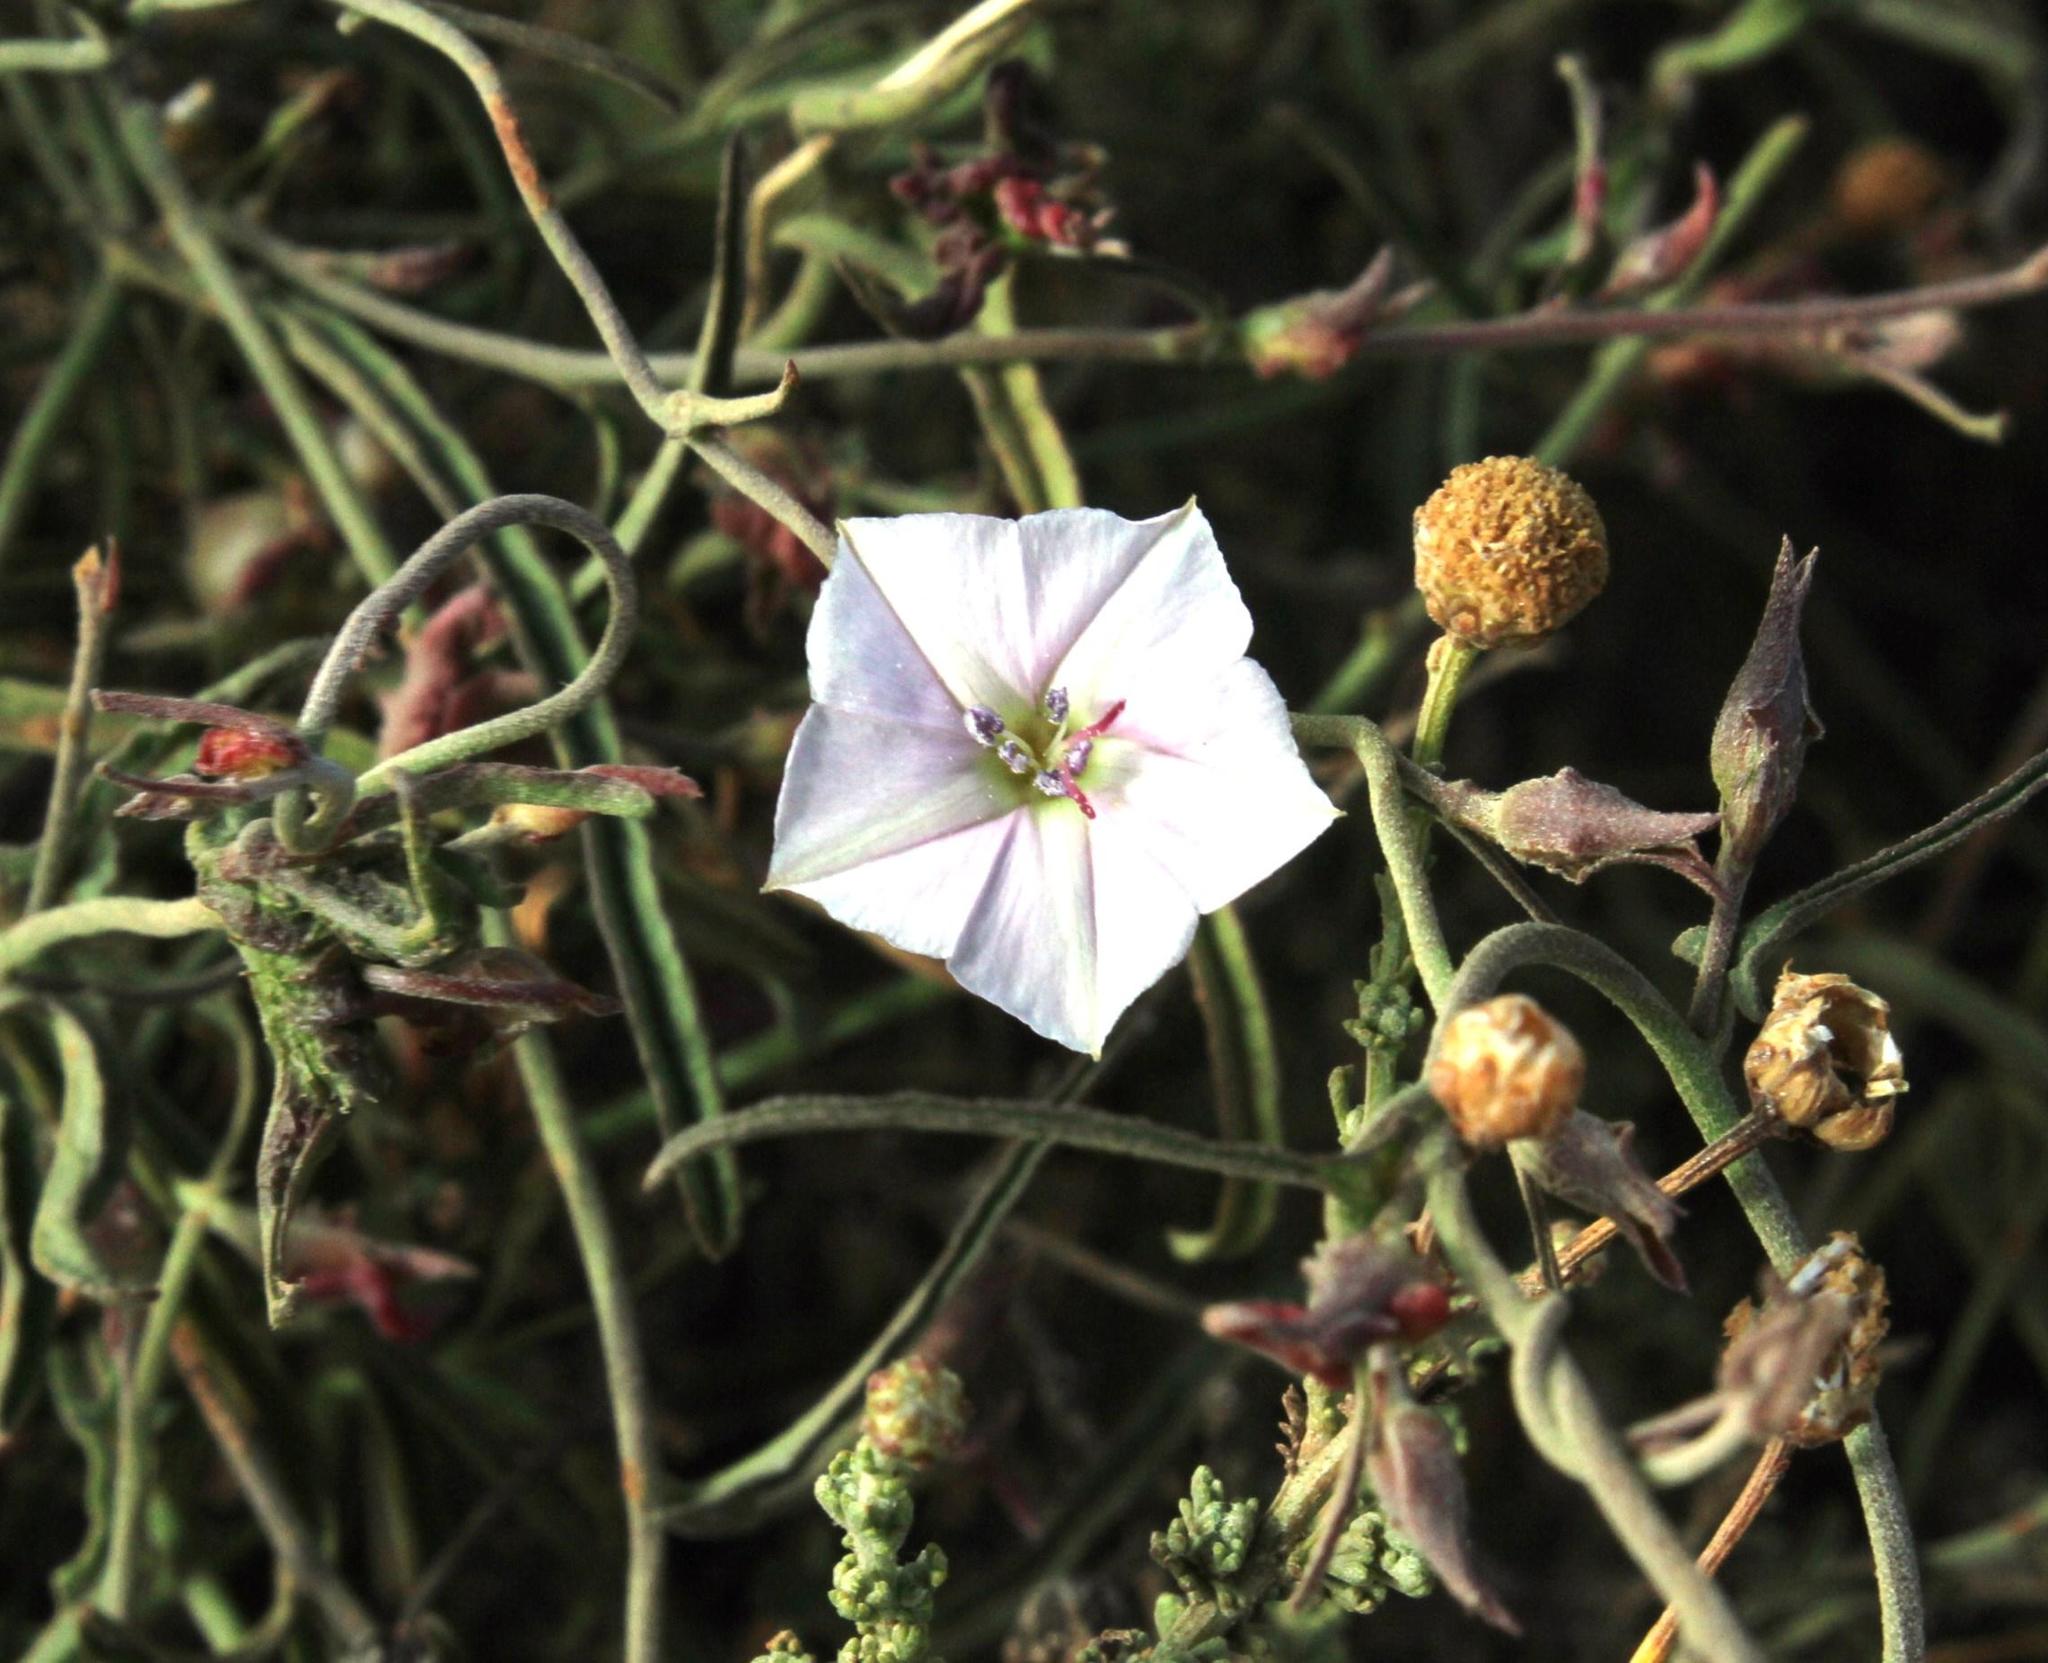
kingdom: Plantae
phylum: Tracheophyta
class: Magnoliopsida
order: Solanales
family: Convolvulaceae
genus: Convolvulus
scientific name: Convolvulus sagittatus
